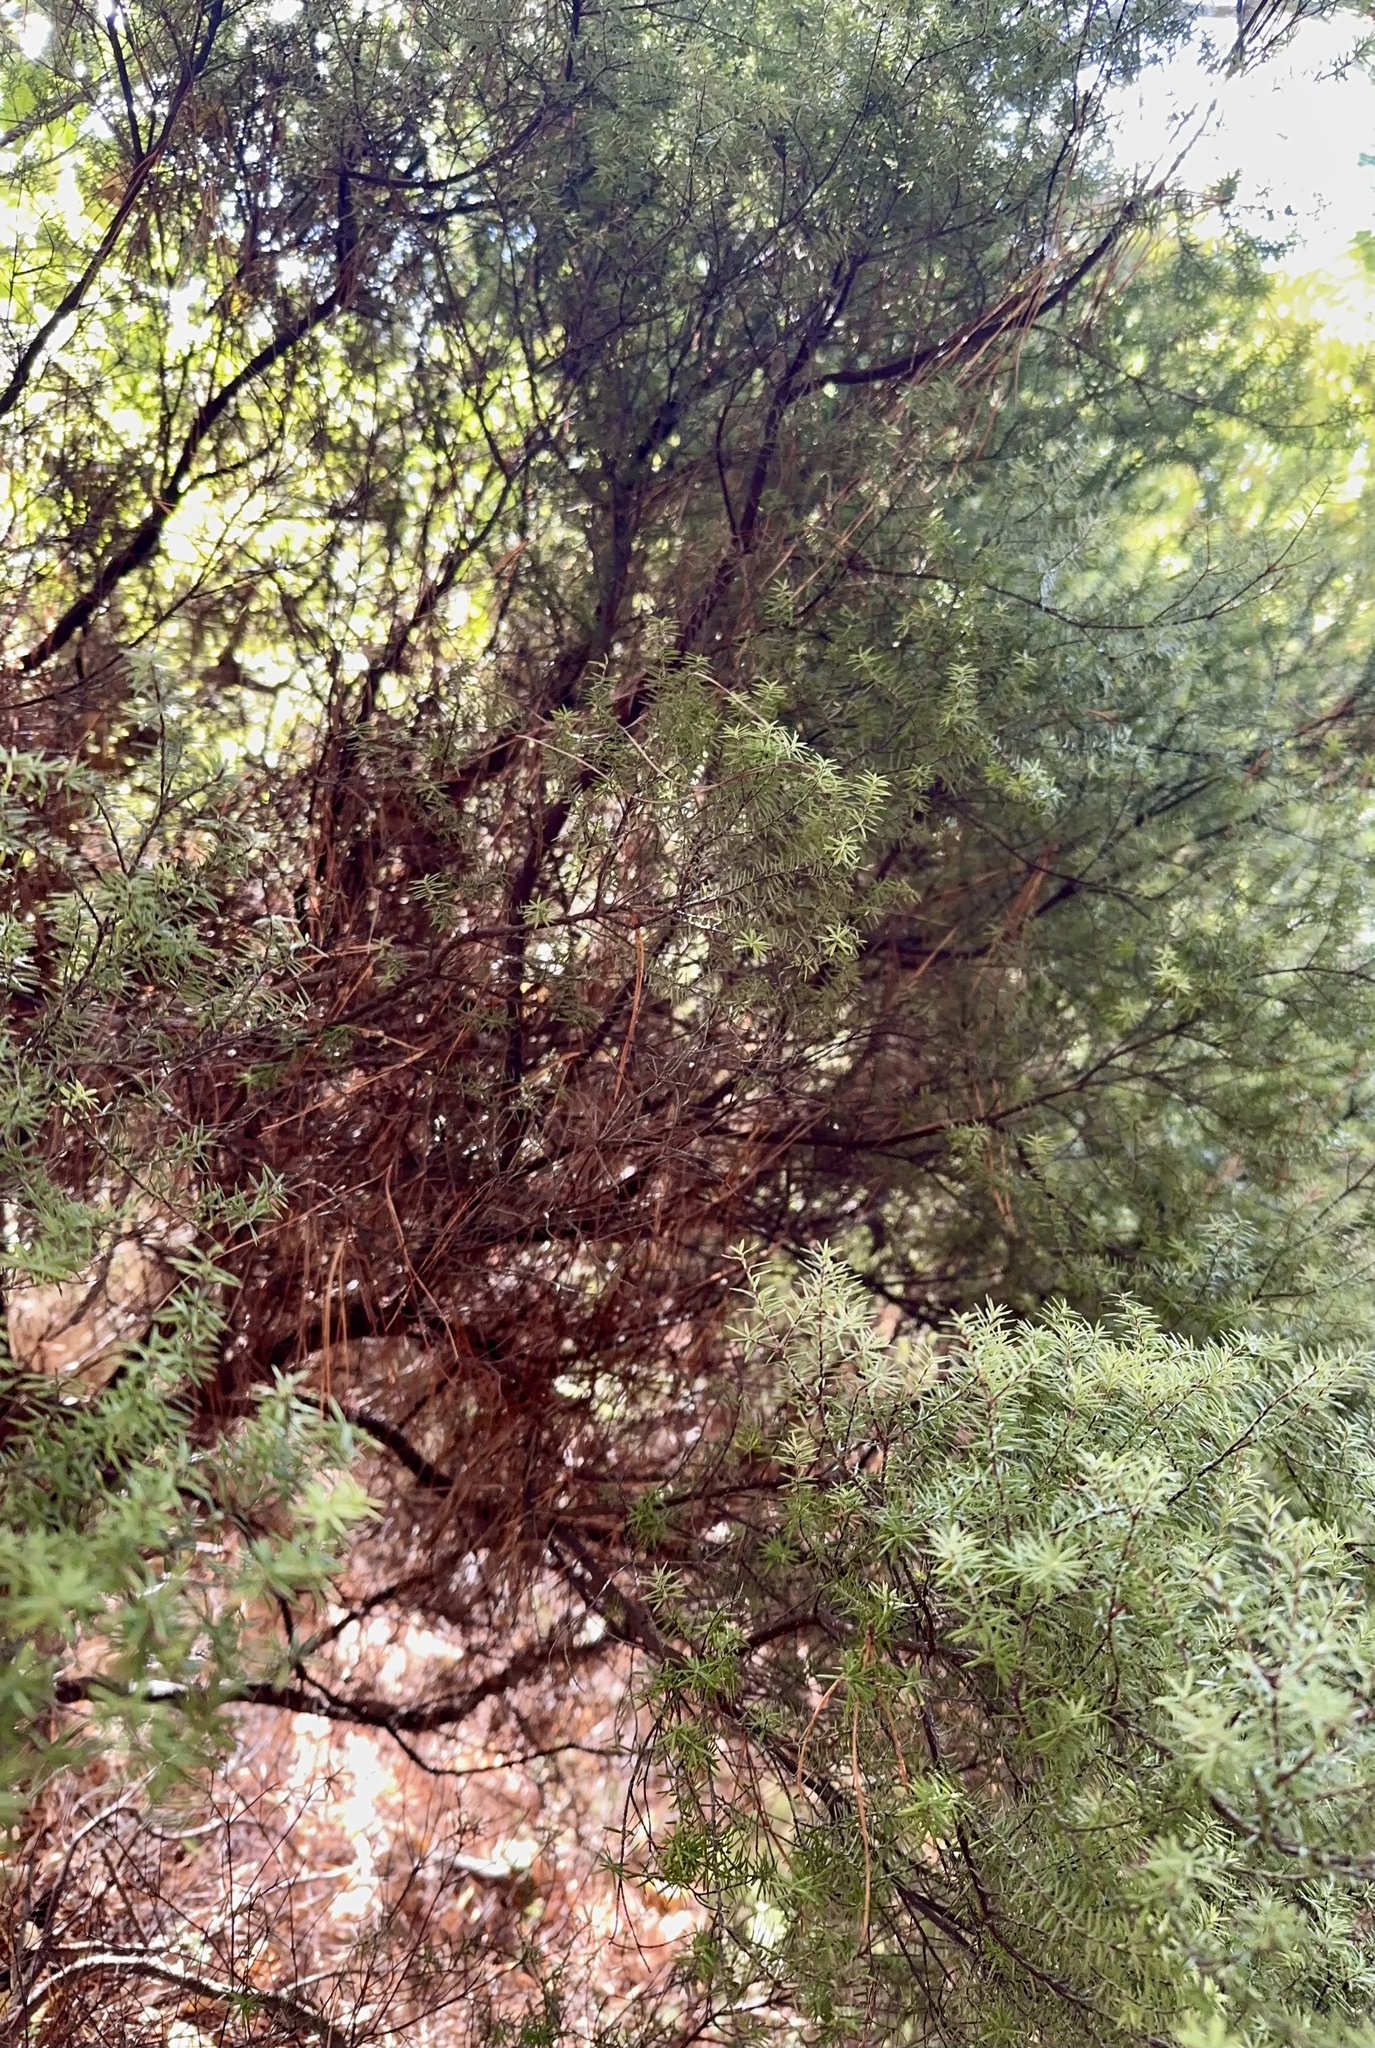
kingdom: Plantae
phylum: Tracheophyta
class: Magnoliopsida
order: Ericales
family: Ericaceae
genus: Leptecophylla
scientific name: Leptecophylla juniperina
